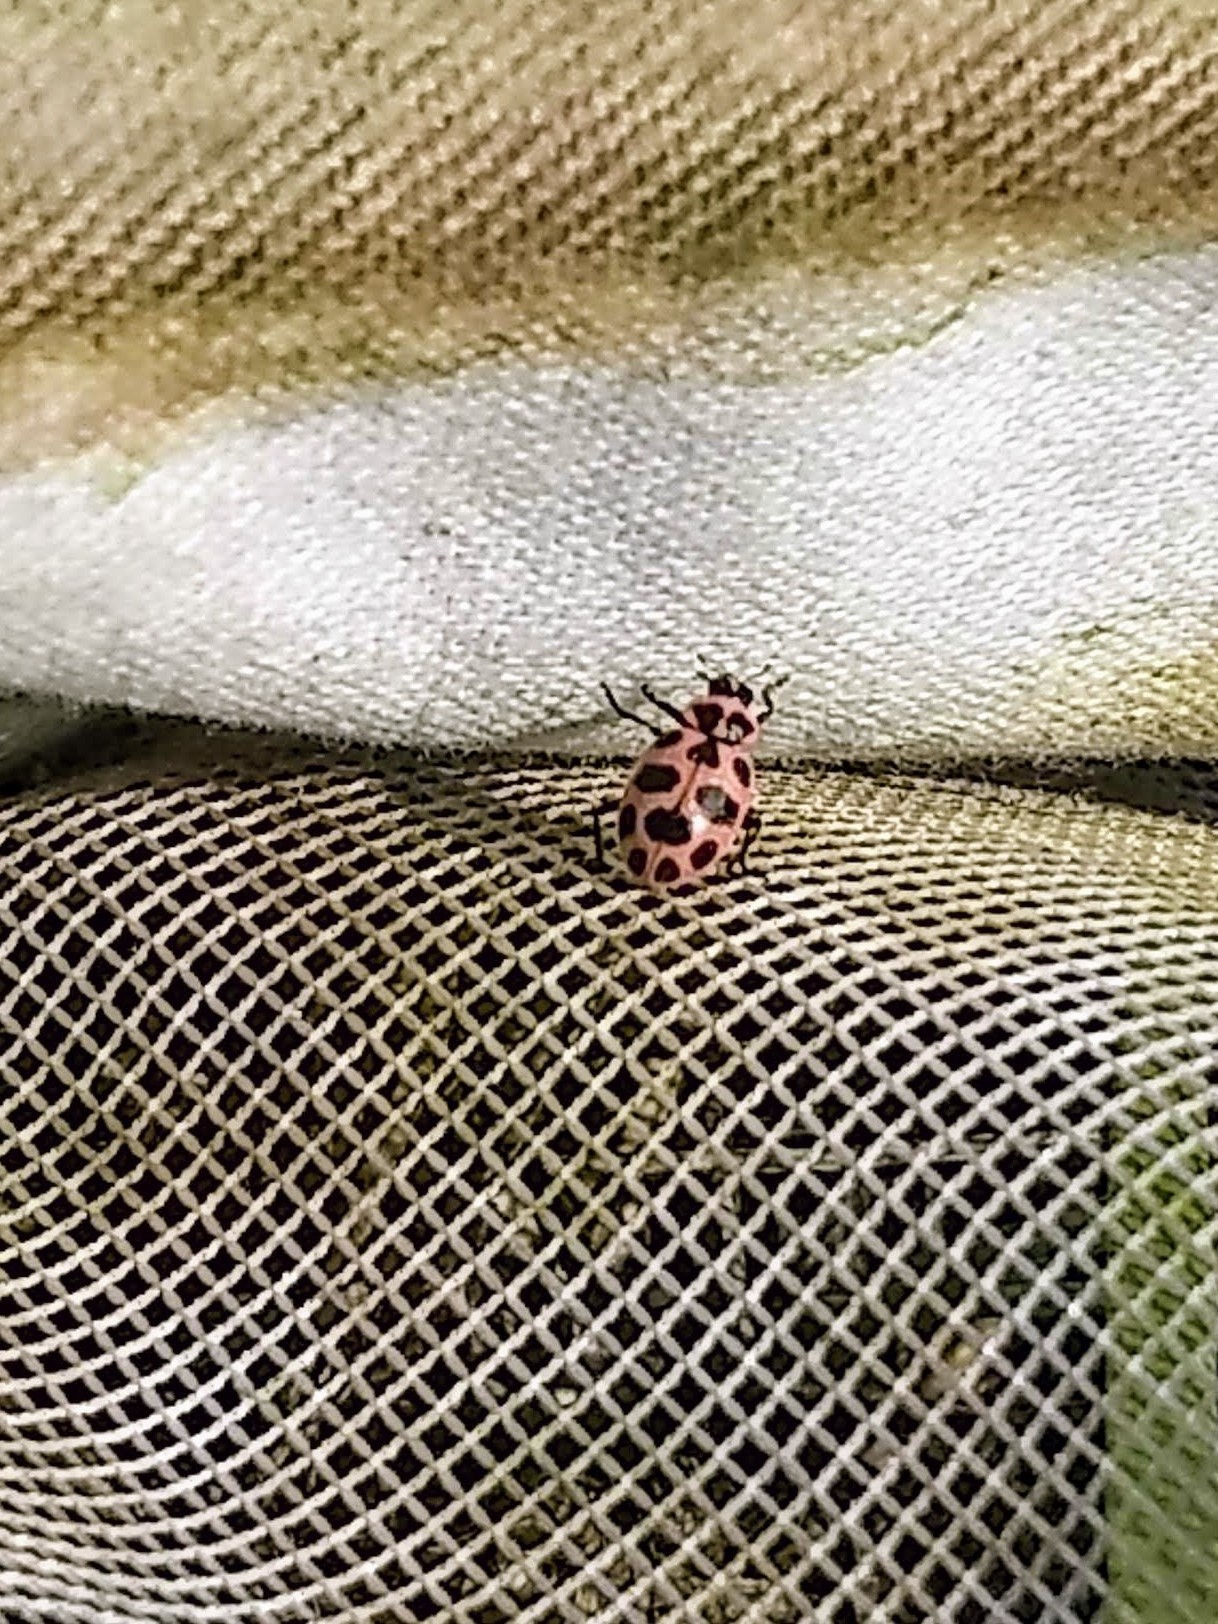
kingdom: Animalia
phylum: Arthropoda
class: Insecta
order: Coleoptera
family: Coccinellidae
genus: Coleomegilla
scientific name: Coleomegilla maculata
